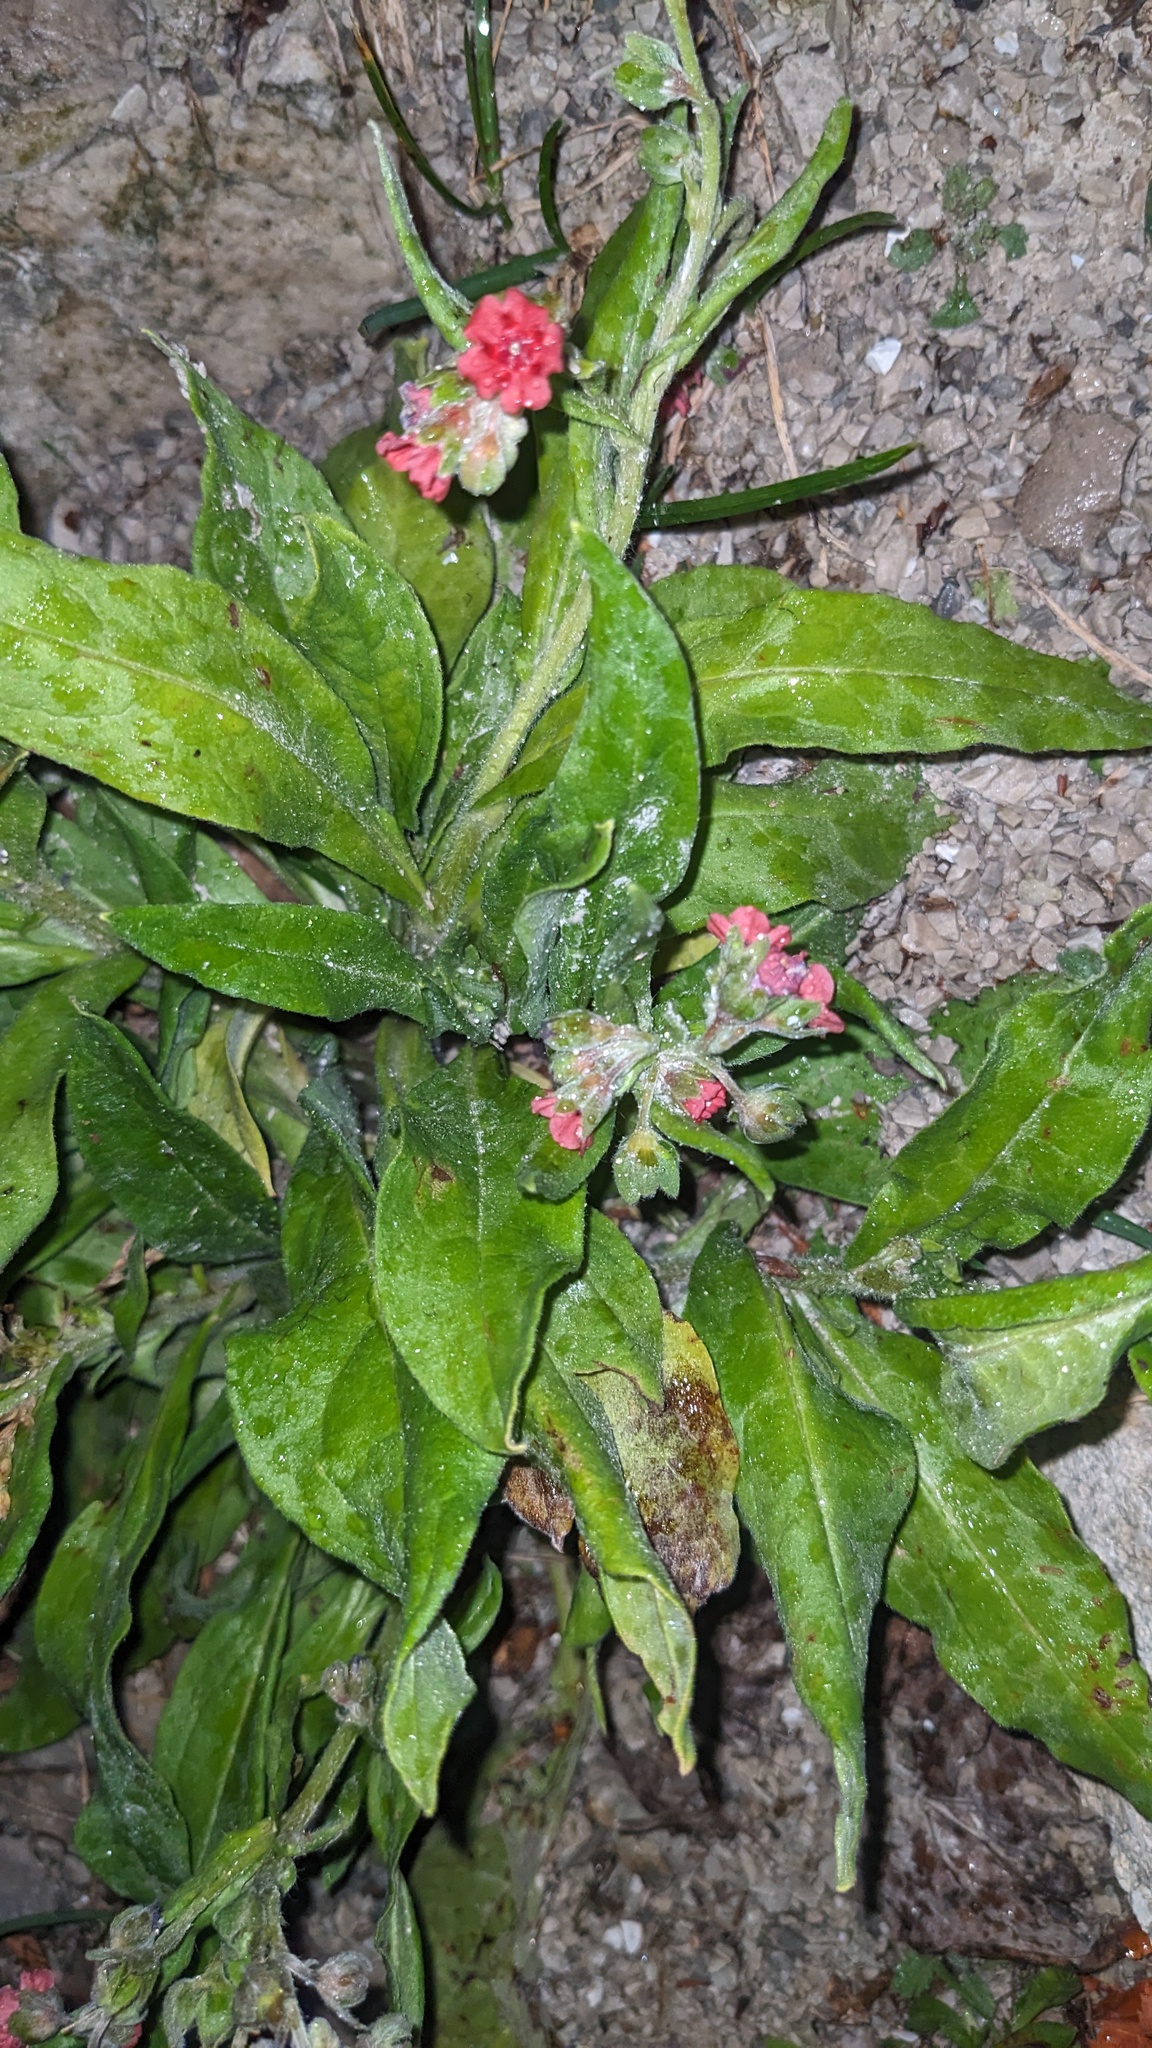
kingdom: Plantae
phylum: Tracheophyta
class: Magnoliopsida
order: Boraginales
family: Boraginaceae
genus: Cynoglossum
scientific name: Cynoglossum officinale
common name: Hound's-tongue
